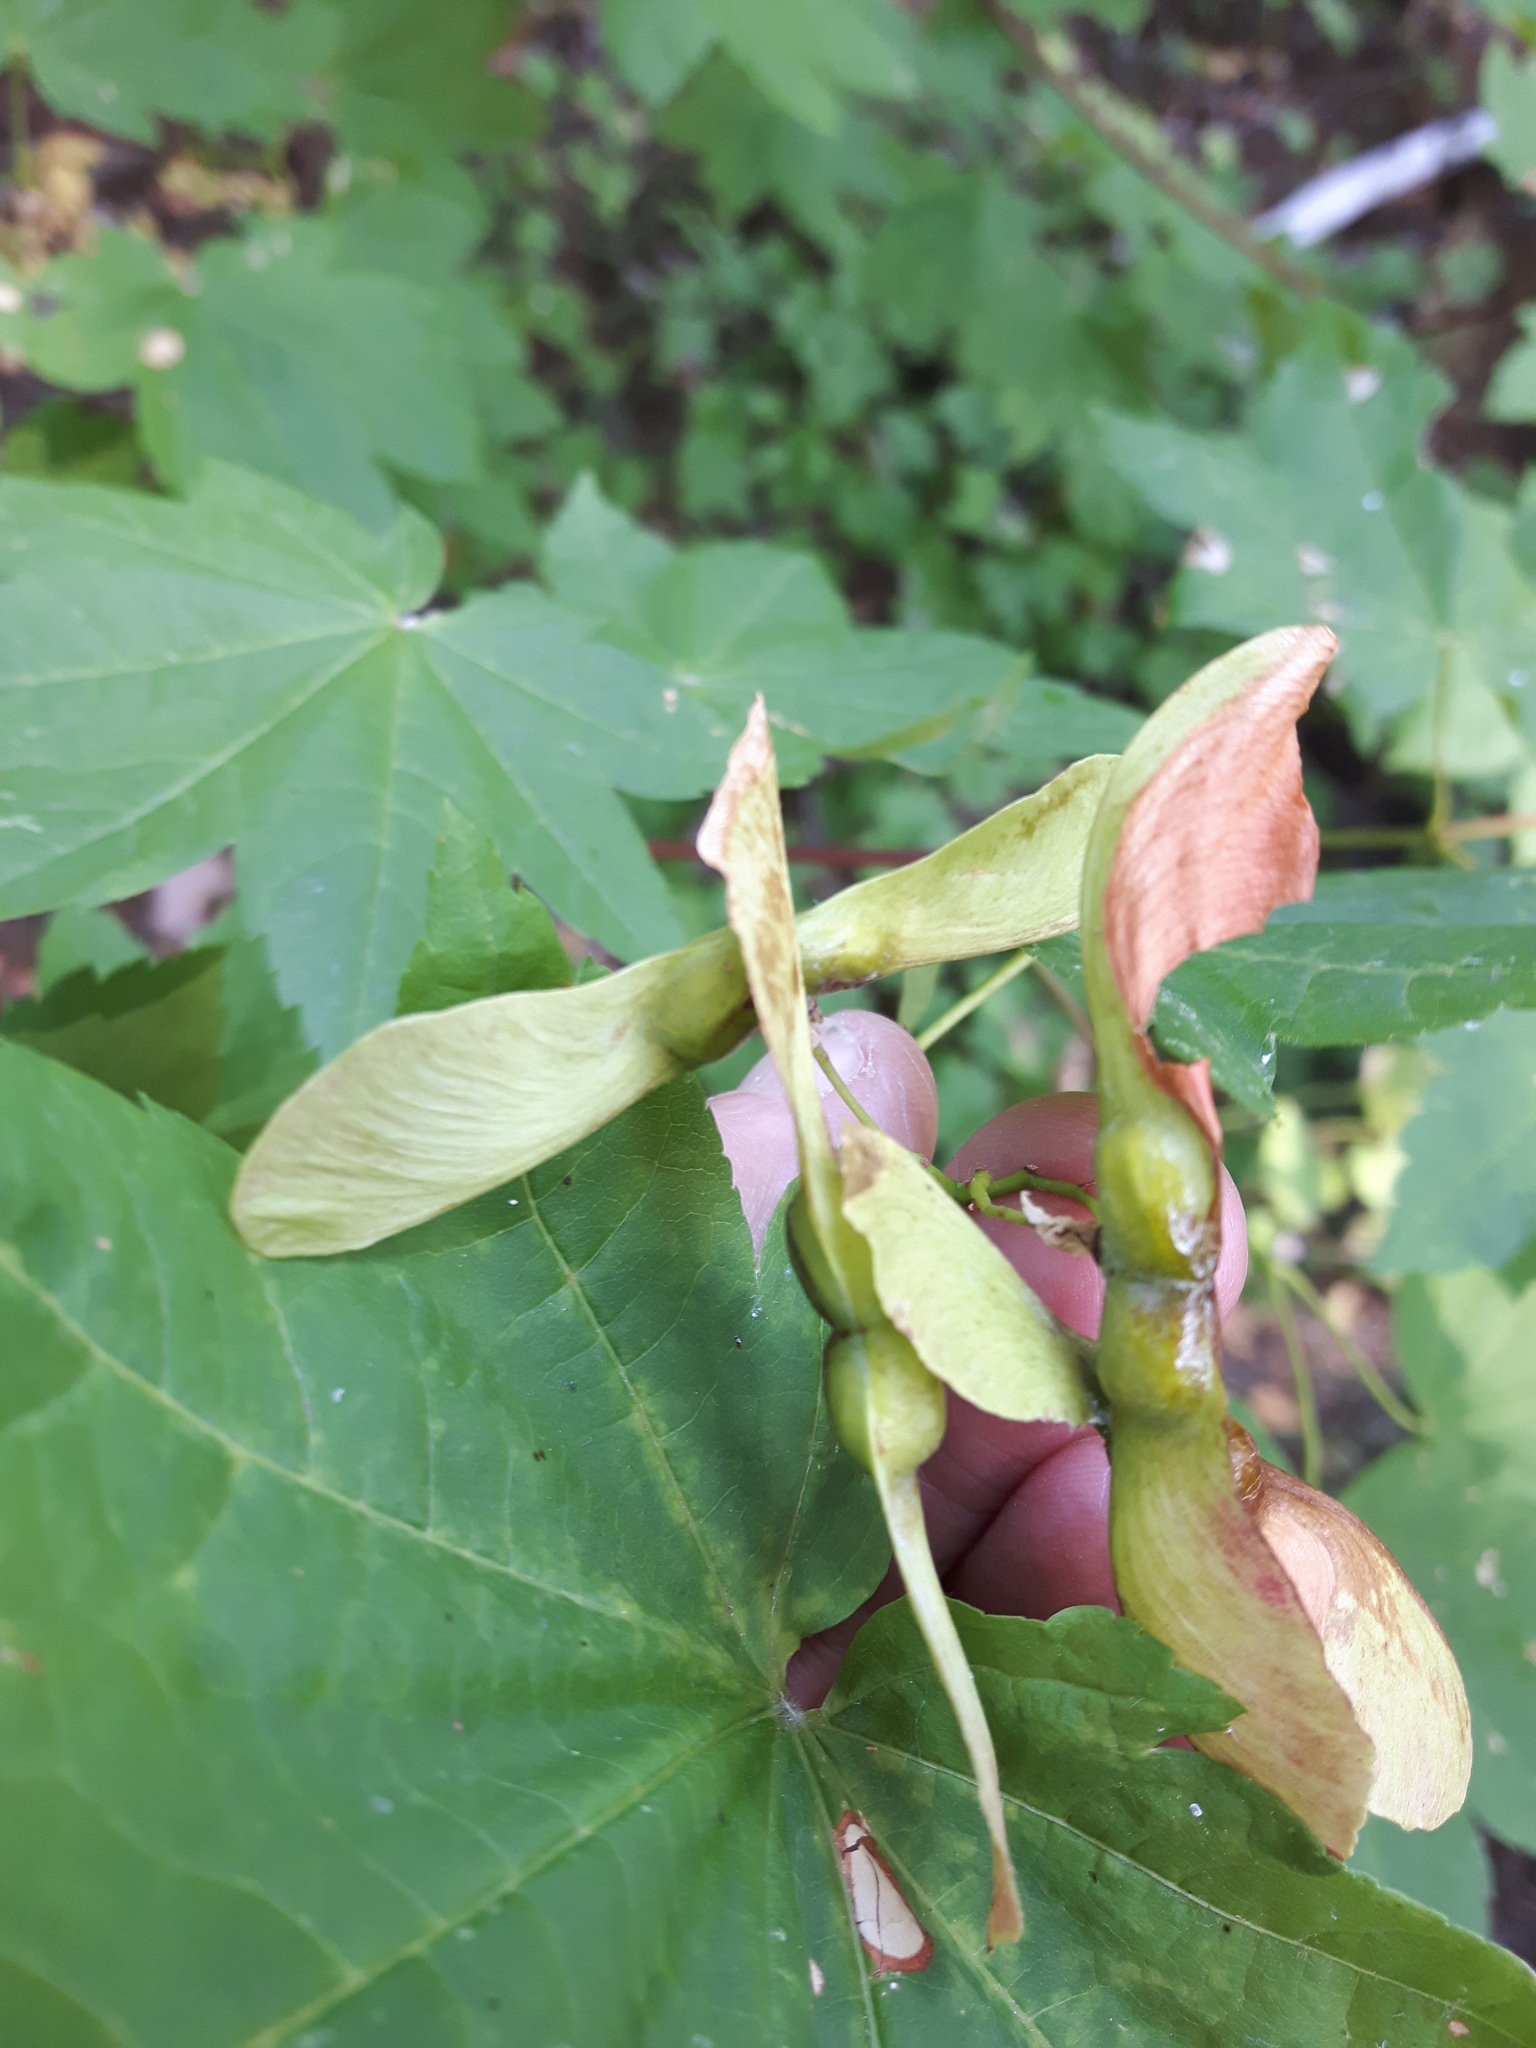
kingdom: Plantae
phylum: Tracheophyta
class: Magnoliopsida
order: Sapindales
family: Sapindaceae
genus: Acer
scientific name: Acer circinatum
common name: Vine maple
